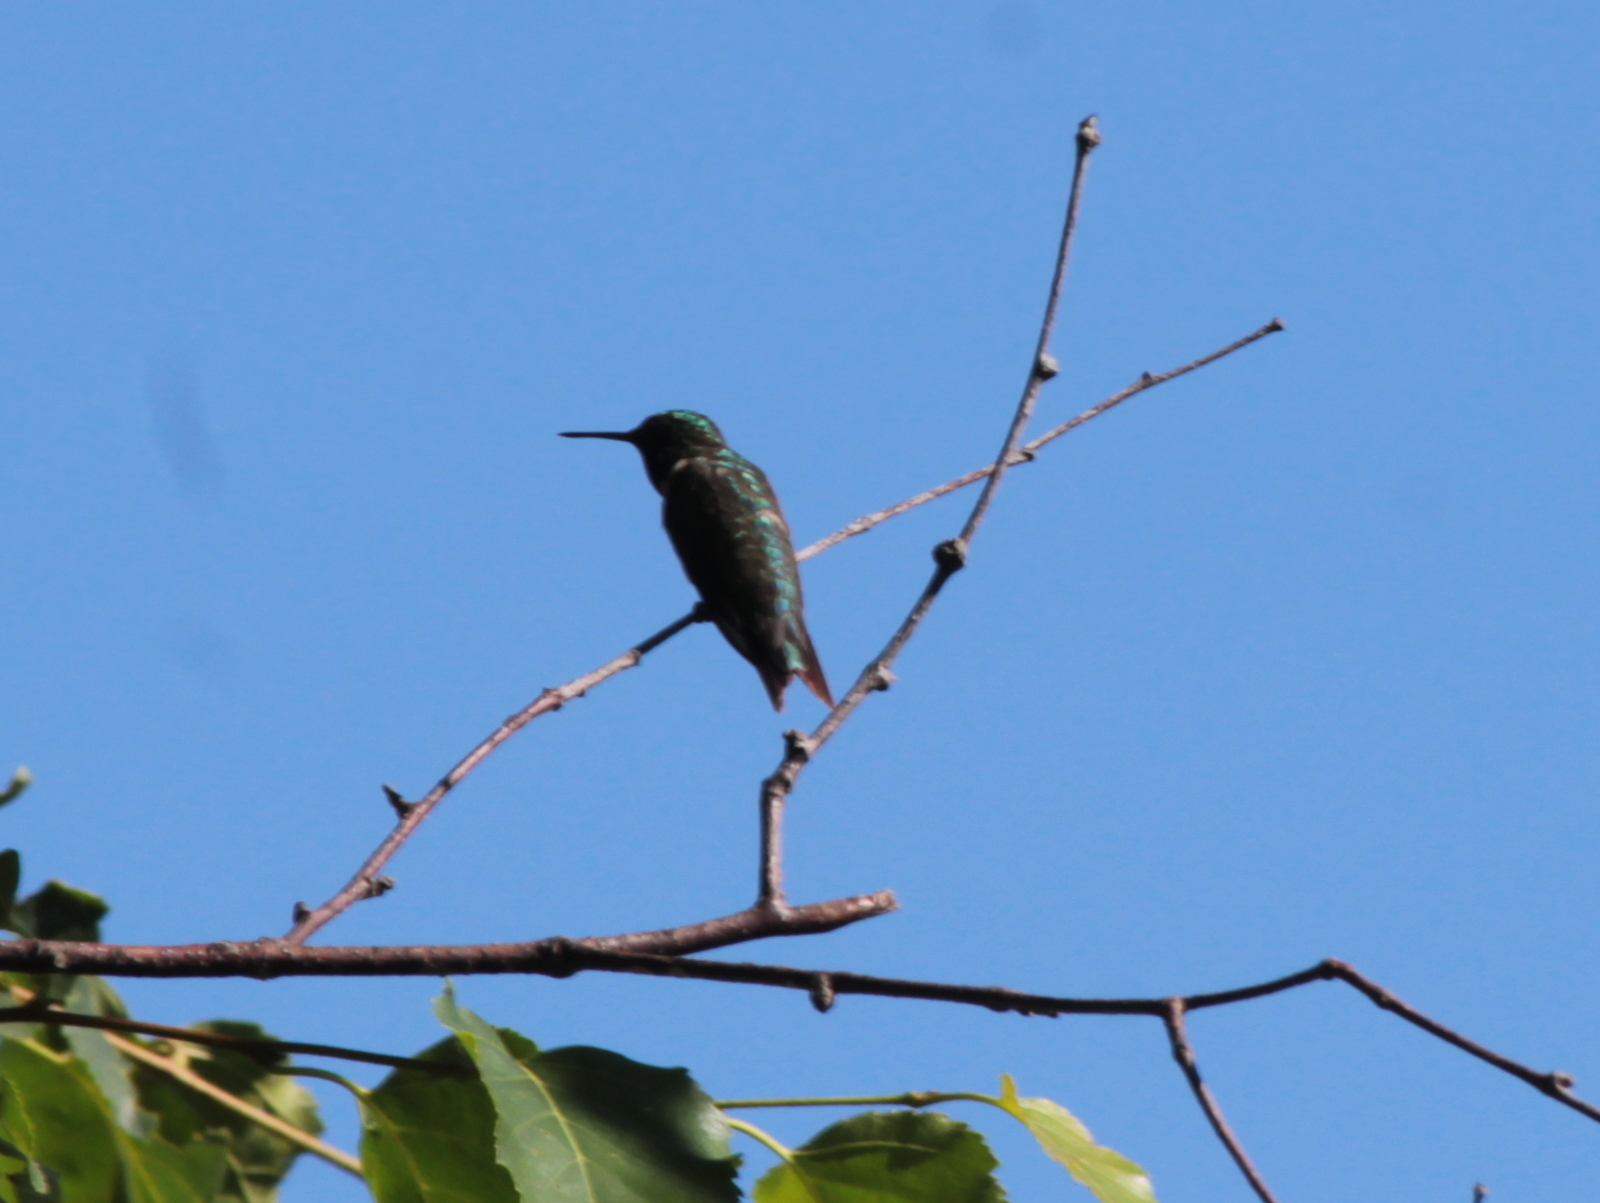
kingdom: Animalia
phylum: Chordata
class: Aves
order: Apodiformes
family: Trochilidae
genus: Archilochus
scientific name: Archilochus colubris
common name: Ruby-throated hummingbird
